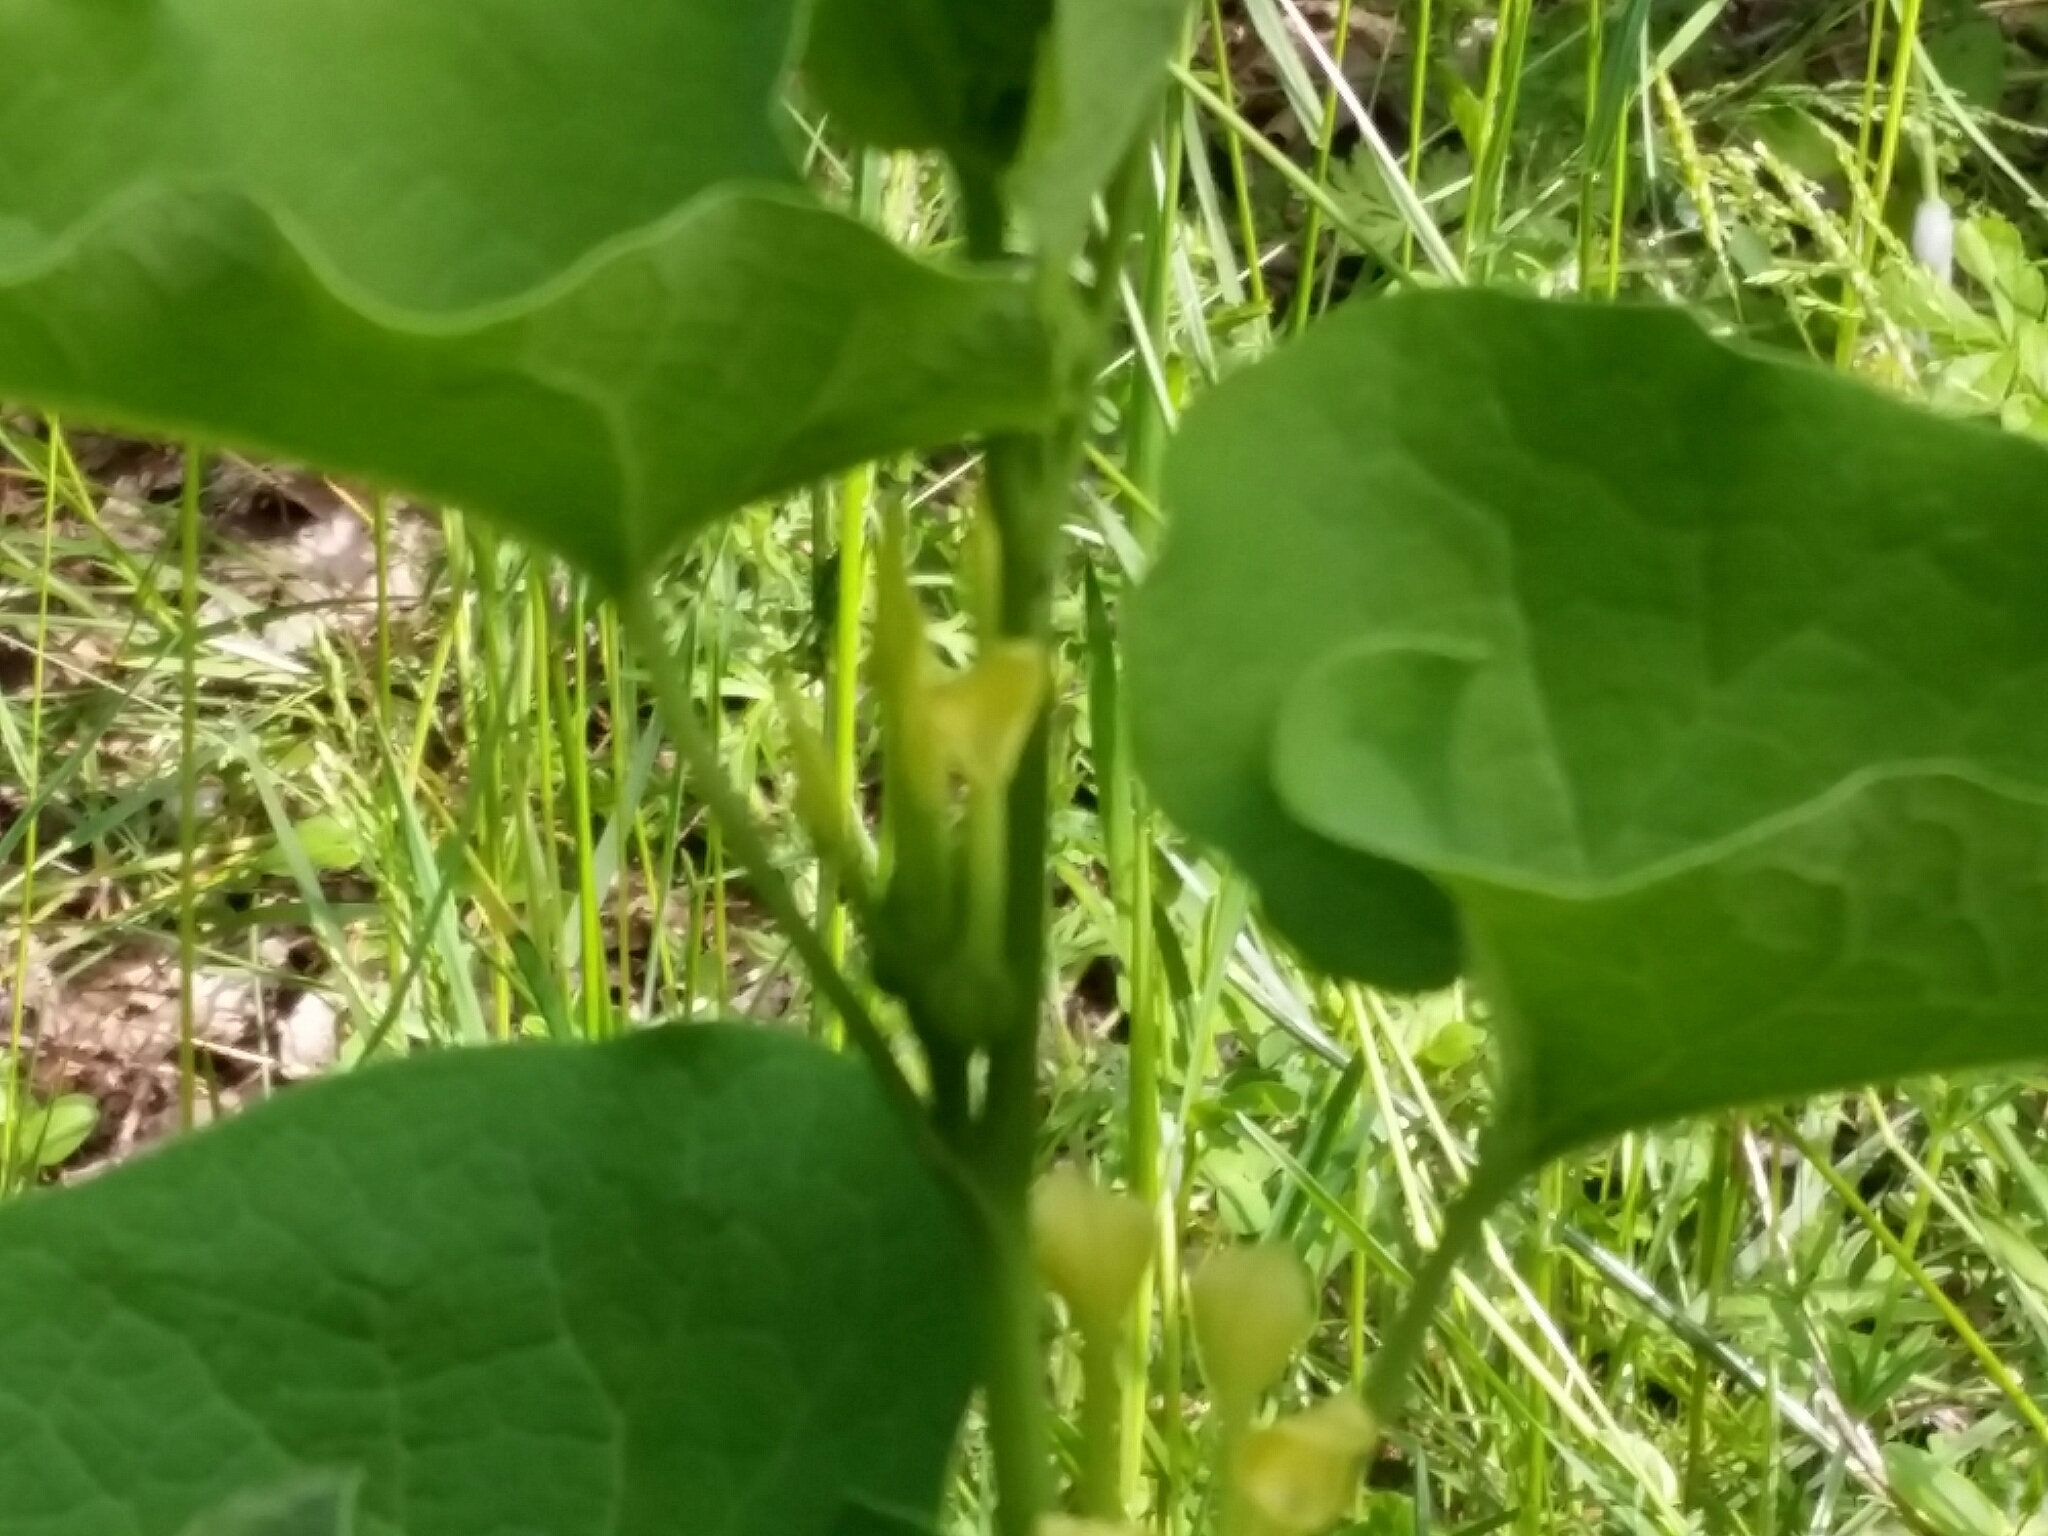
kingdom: Plantae
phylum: Tracheophyta
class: Magnoliopsida
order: Piperales
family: Aristolochiaceae
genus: Aristolochia
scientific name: Aristolochia clematitis
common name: Birthwort
